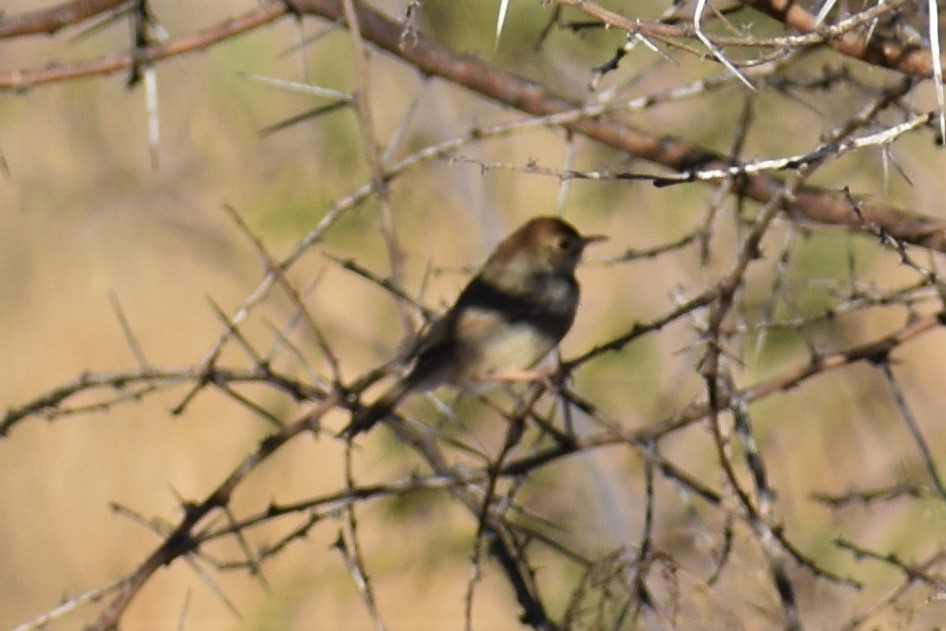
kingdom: Animalia
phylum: Chordata
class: Aves
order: Passeriformes
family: Cisticolidae
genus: Cisticola
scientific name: Cisticola fulvicapilla
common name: Neddicky
